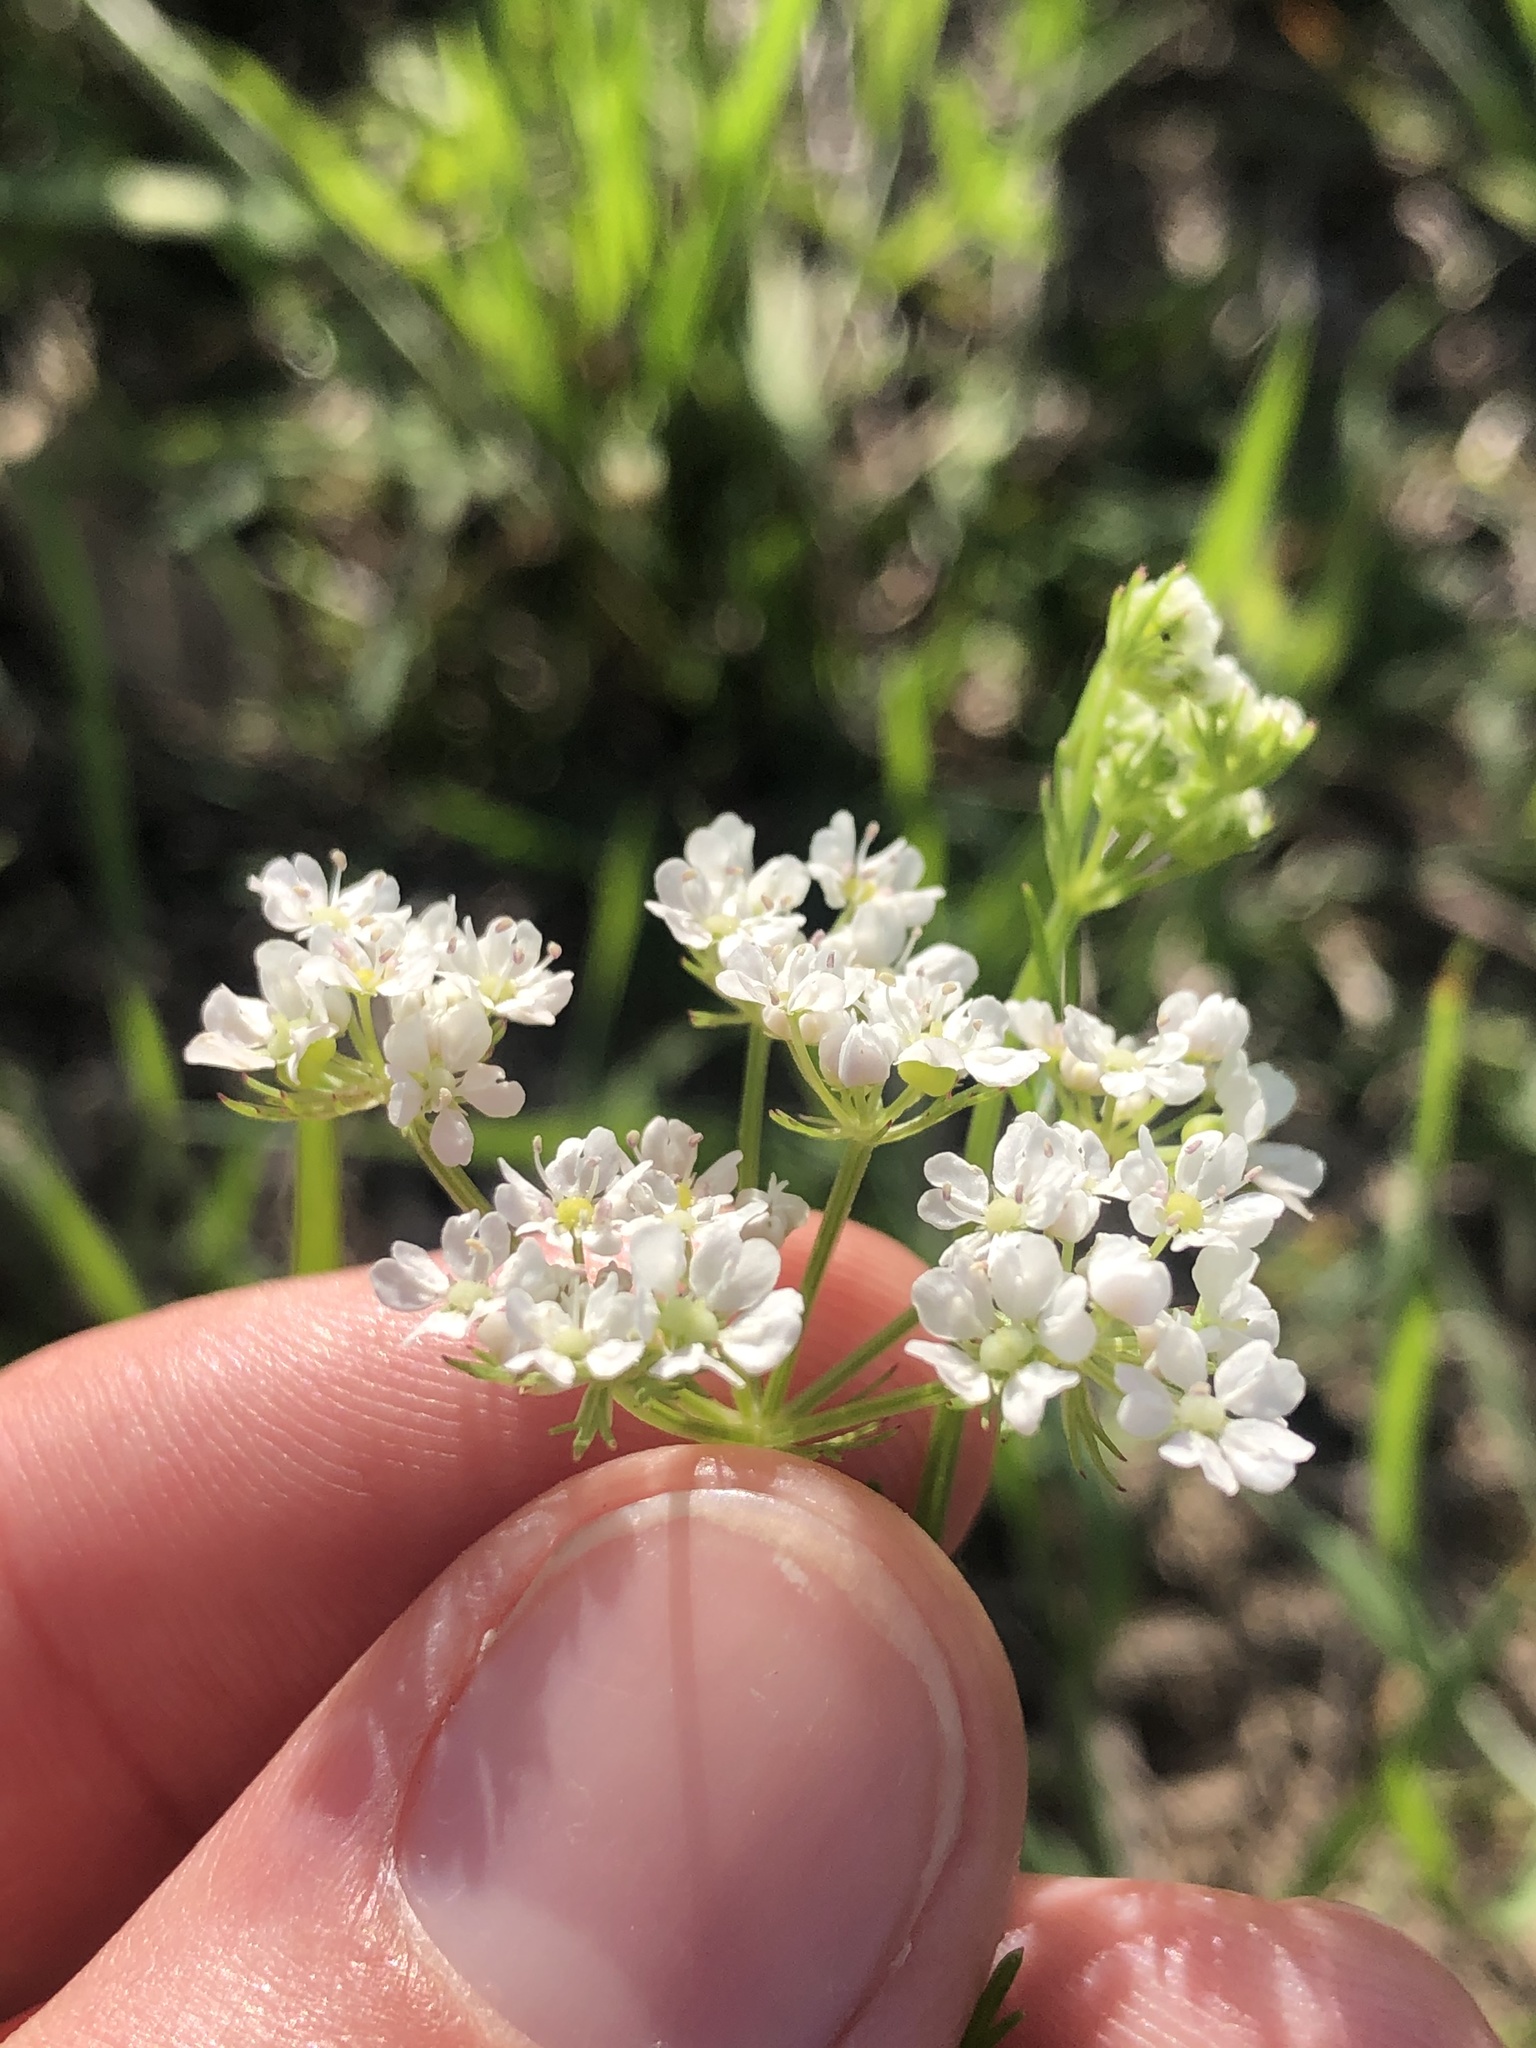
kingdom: Plantae
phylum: Tracheophyta
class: Magnoliopsida
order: Apiales
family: Apiaceae
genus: Atrema
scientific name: Atrema americanum
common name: Prairie-bishop
